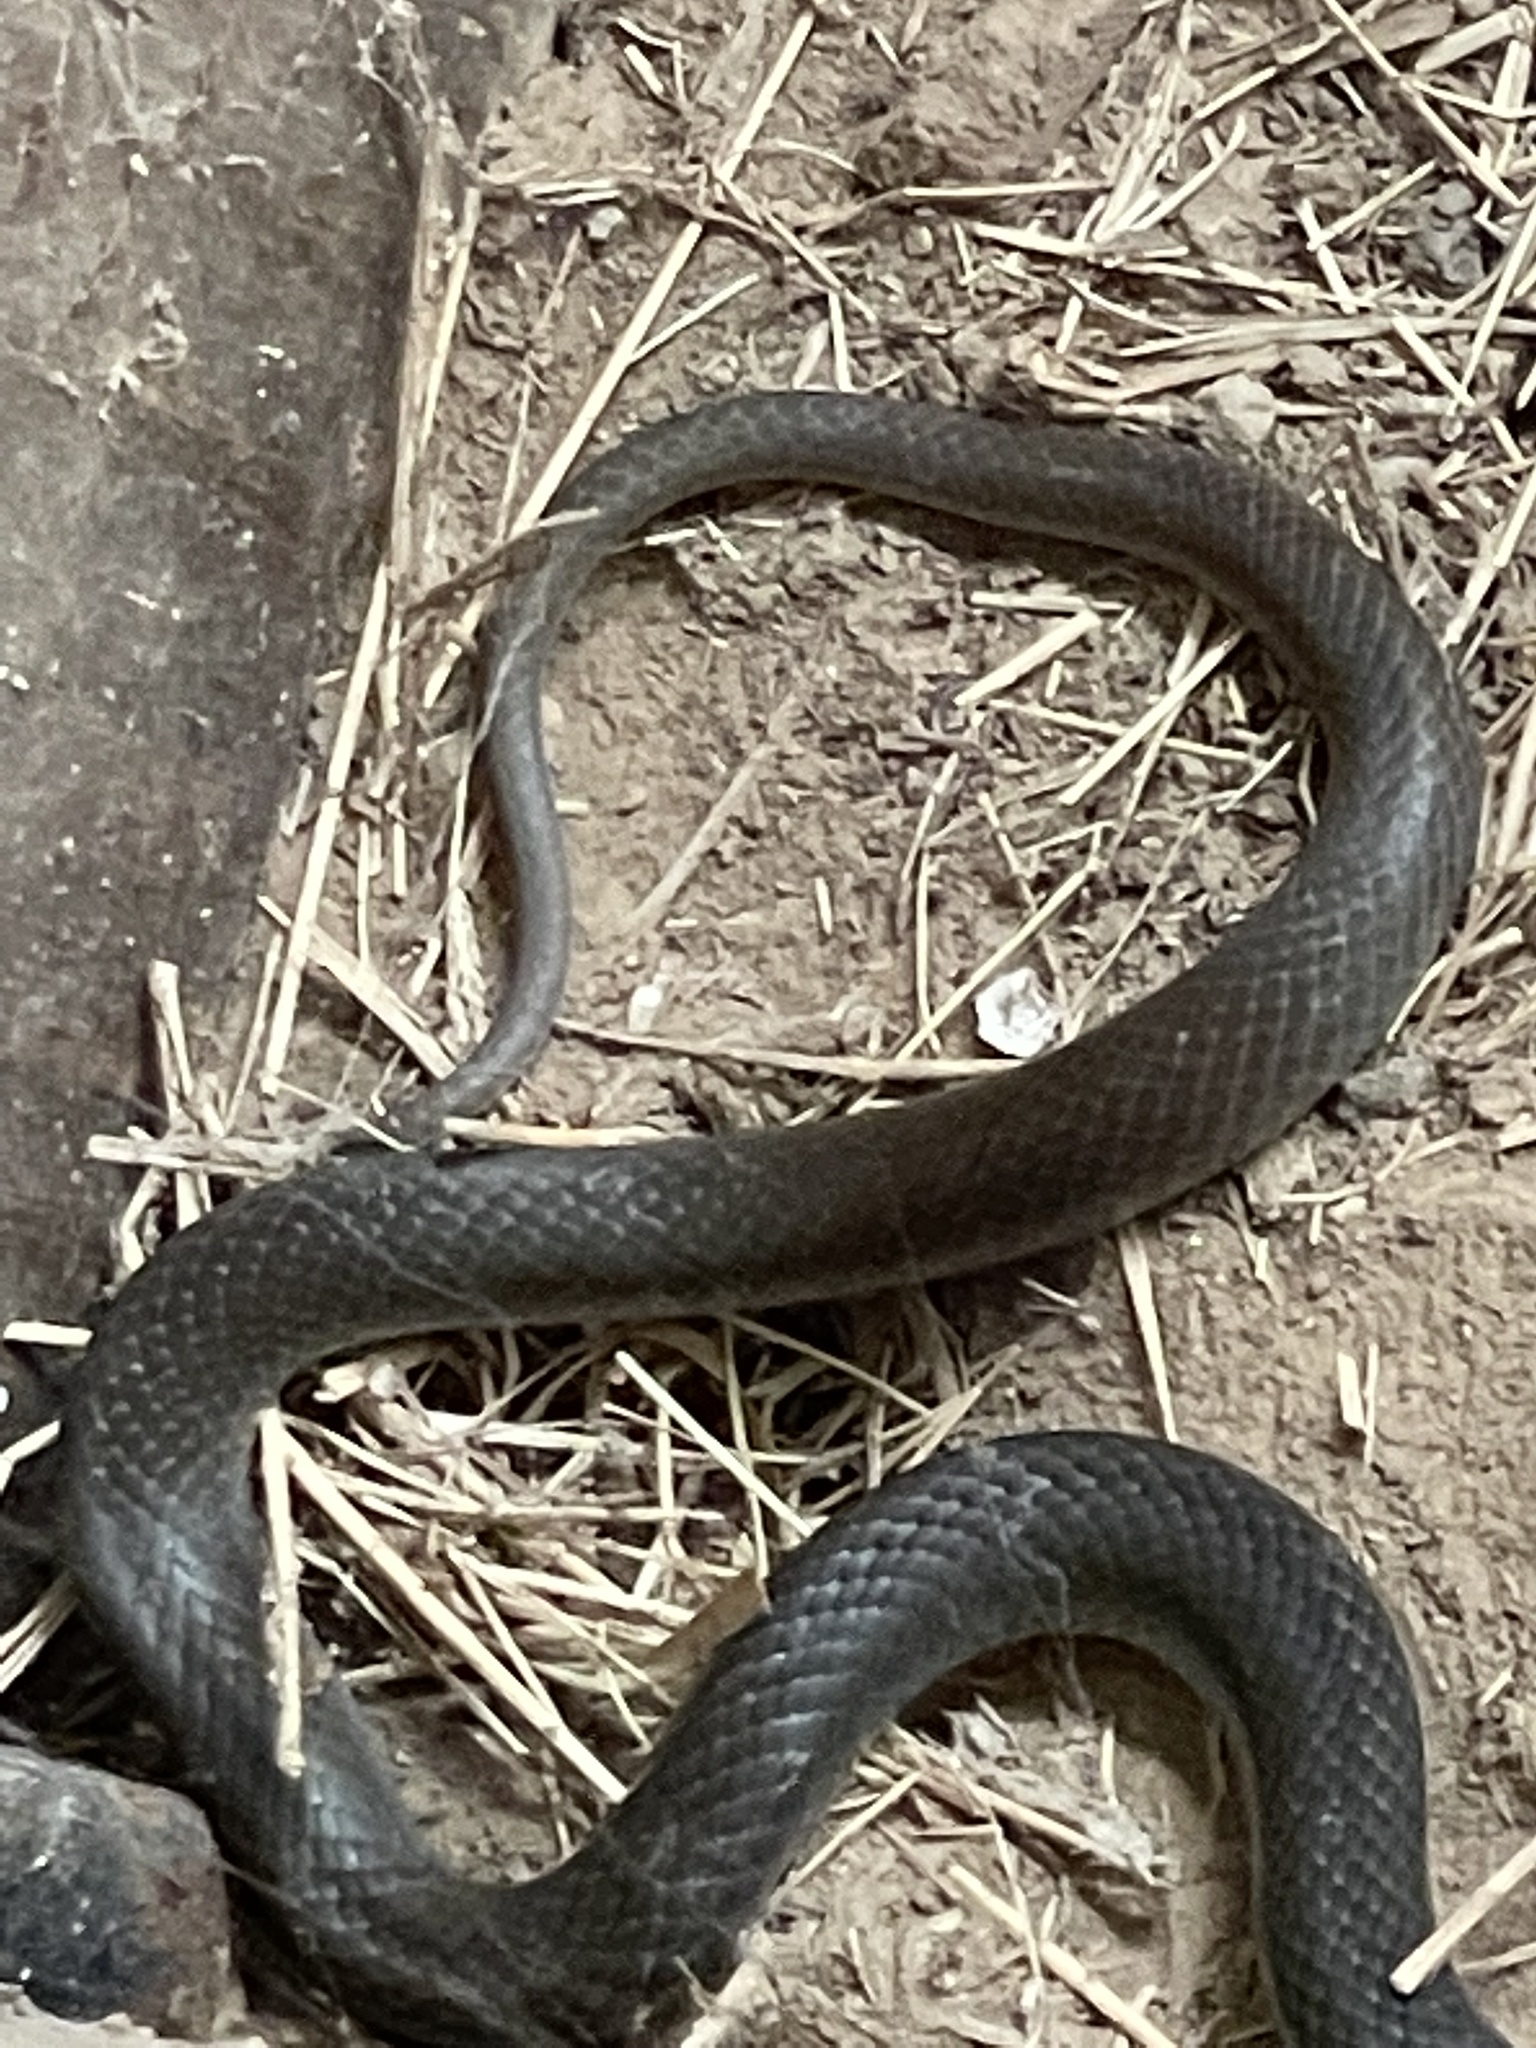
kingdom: Animalia
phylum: Chordata
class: Squamata
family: Colubridae
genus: Coluber
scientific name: Coluber constrictor
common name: Eastern racer
